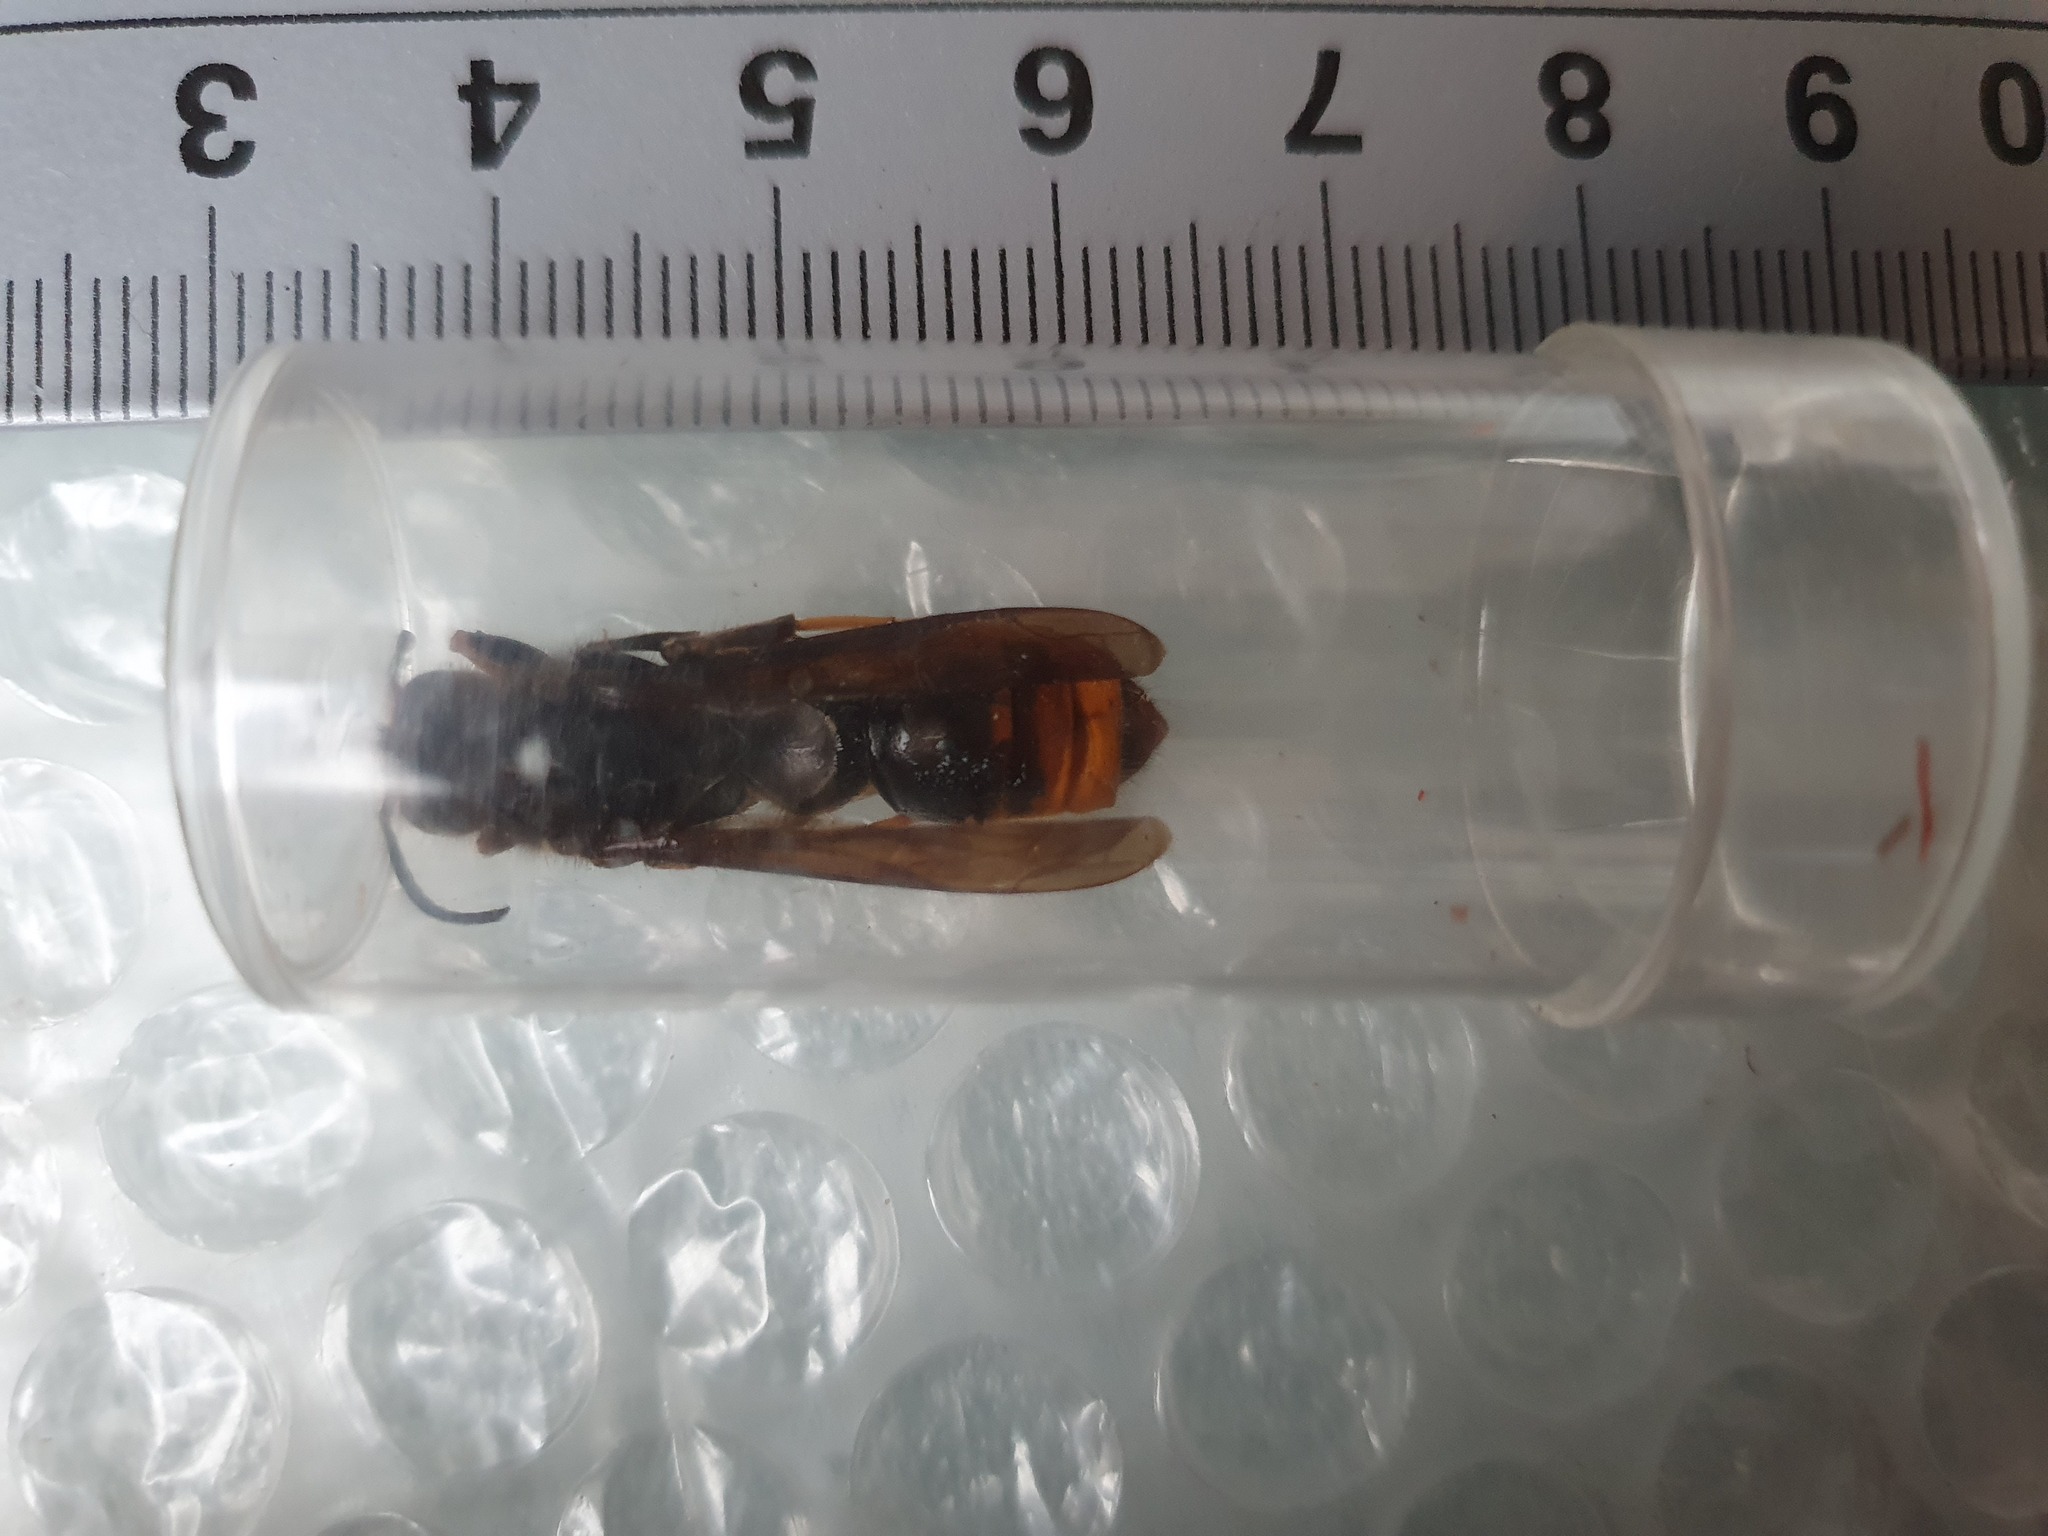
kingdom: Animalia
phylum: Arthropoda
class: Insecta
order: Hymenoptera
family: Vespidae
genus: Vespa
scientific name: Vespa velutina
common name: Asian hornet
